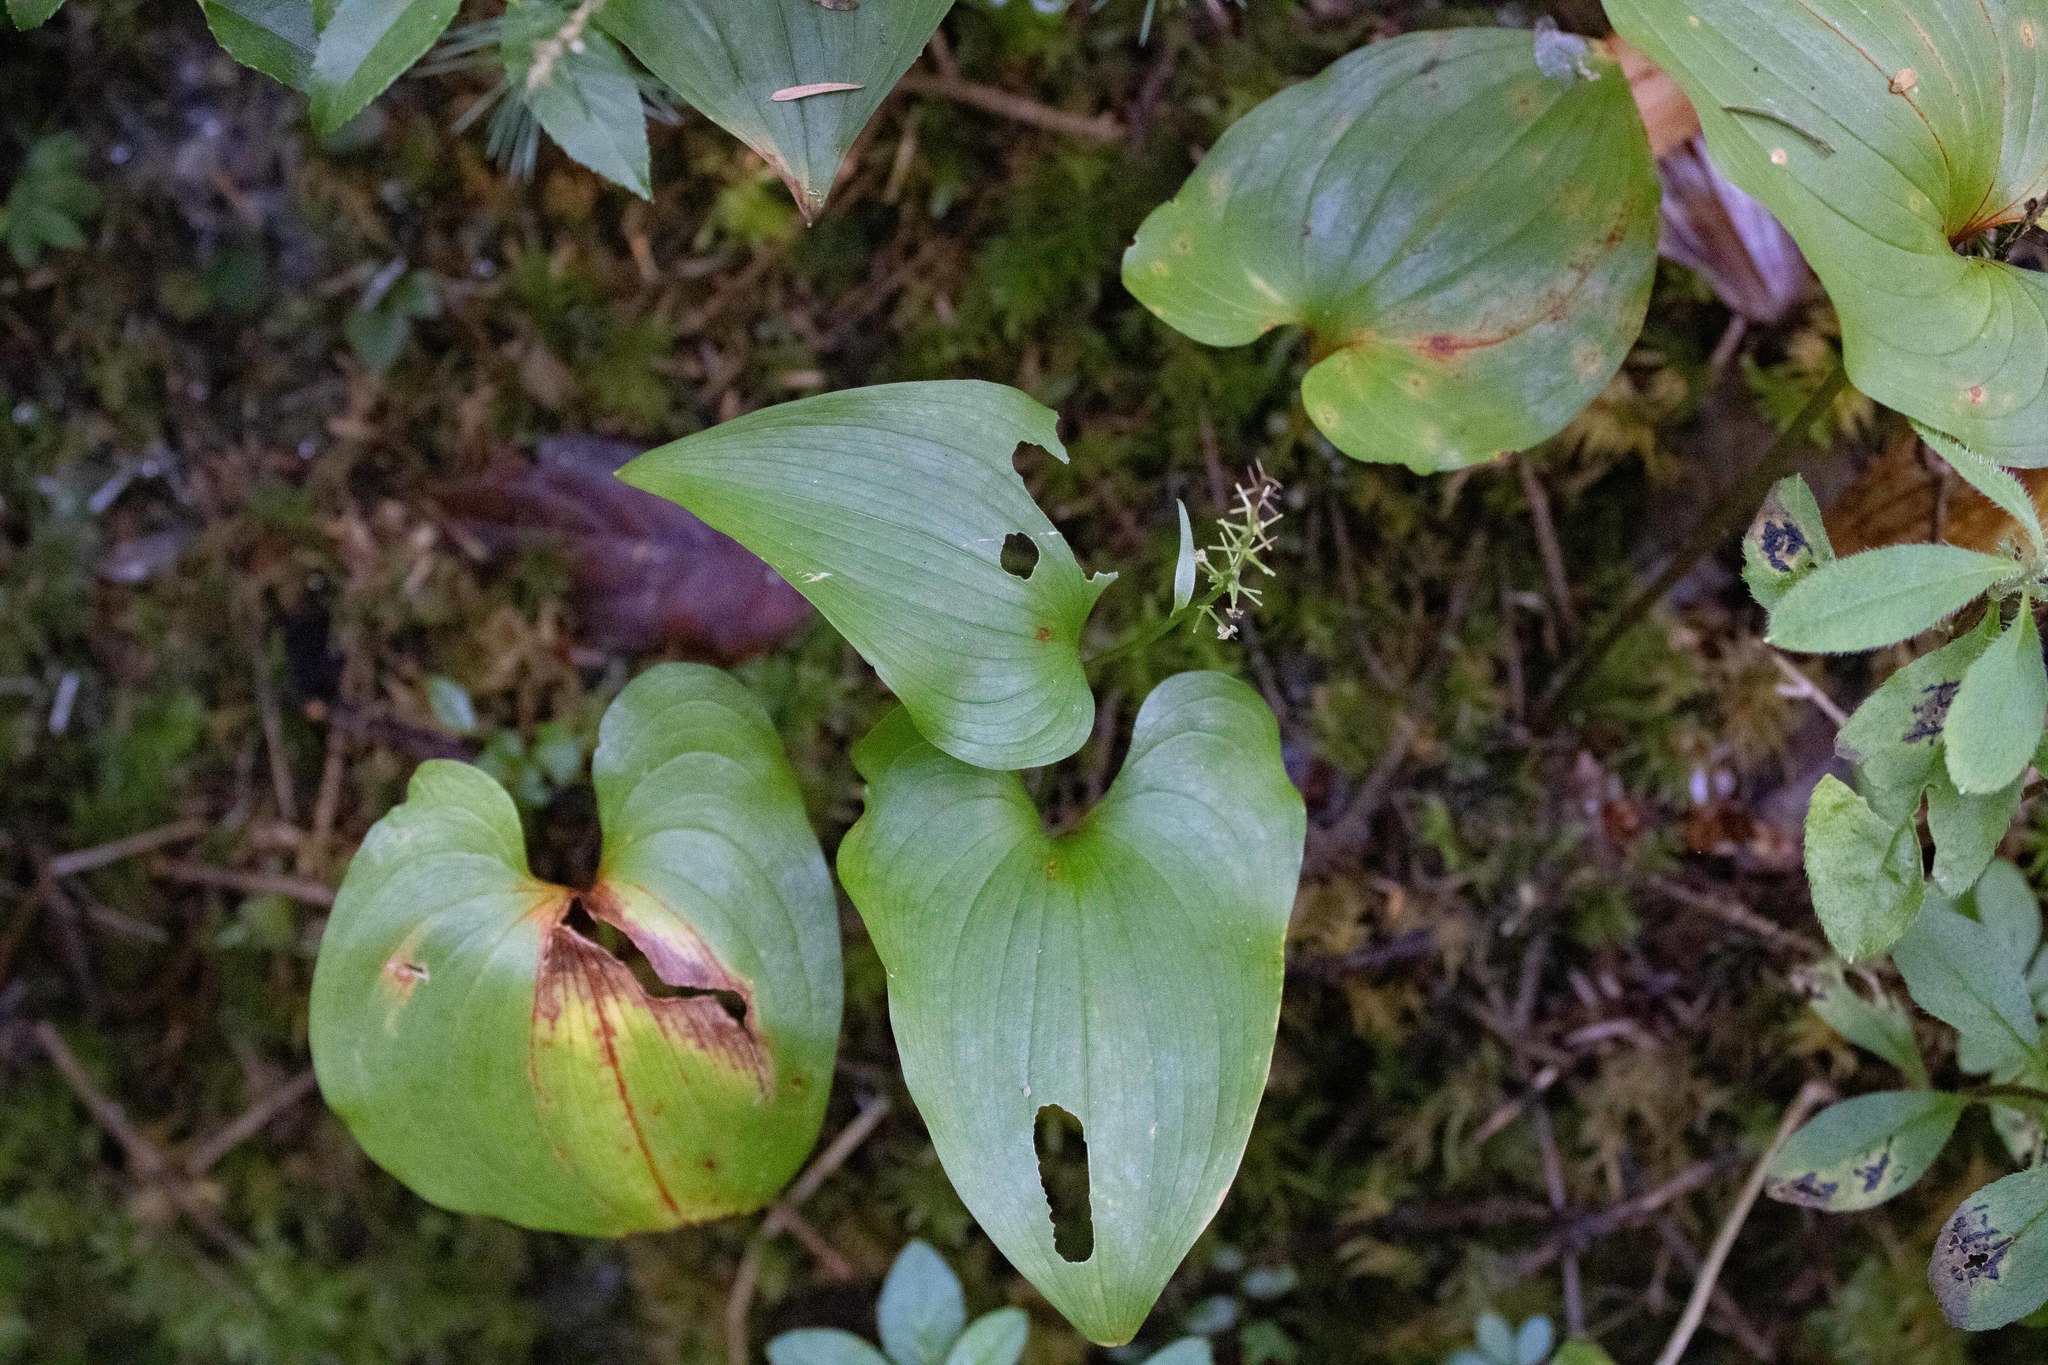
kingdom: Plantae
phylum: Tracheophyta
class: Liliopsida
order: Asparagales
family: Asparagaceae
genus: Maianthemum
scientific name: Maianthemum dilatatum
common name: False lily-of-the-valley
